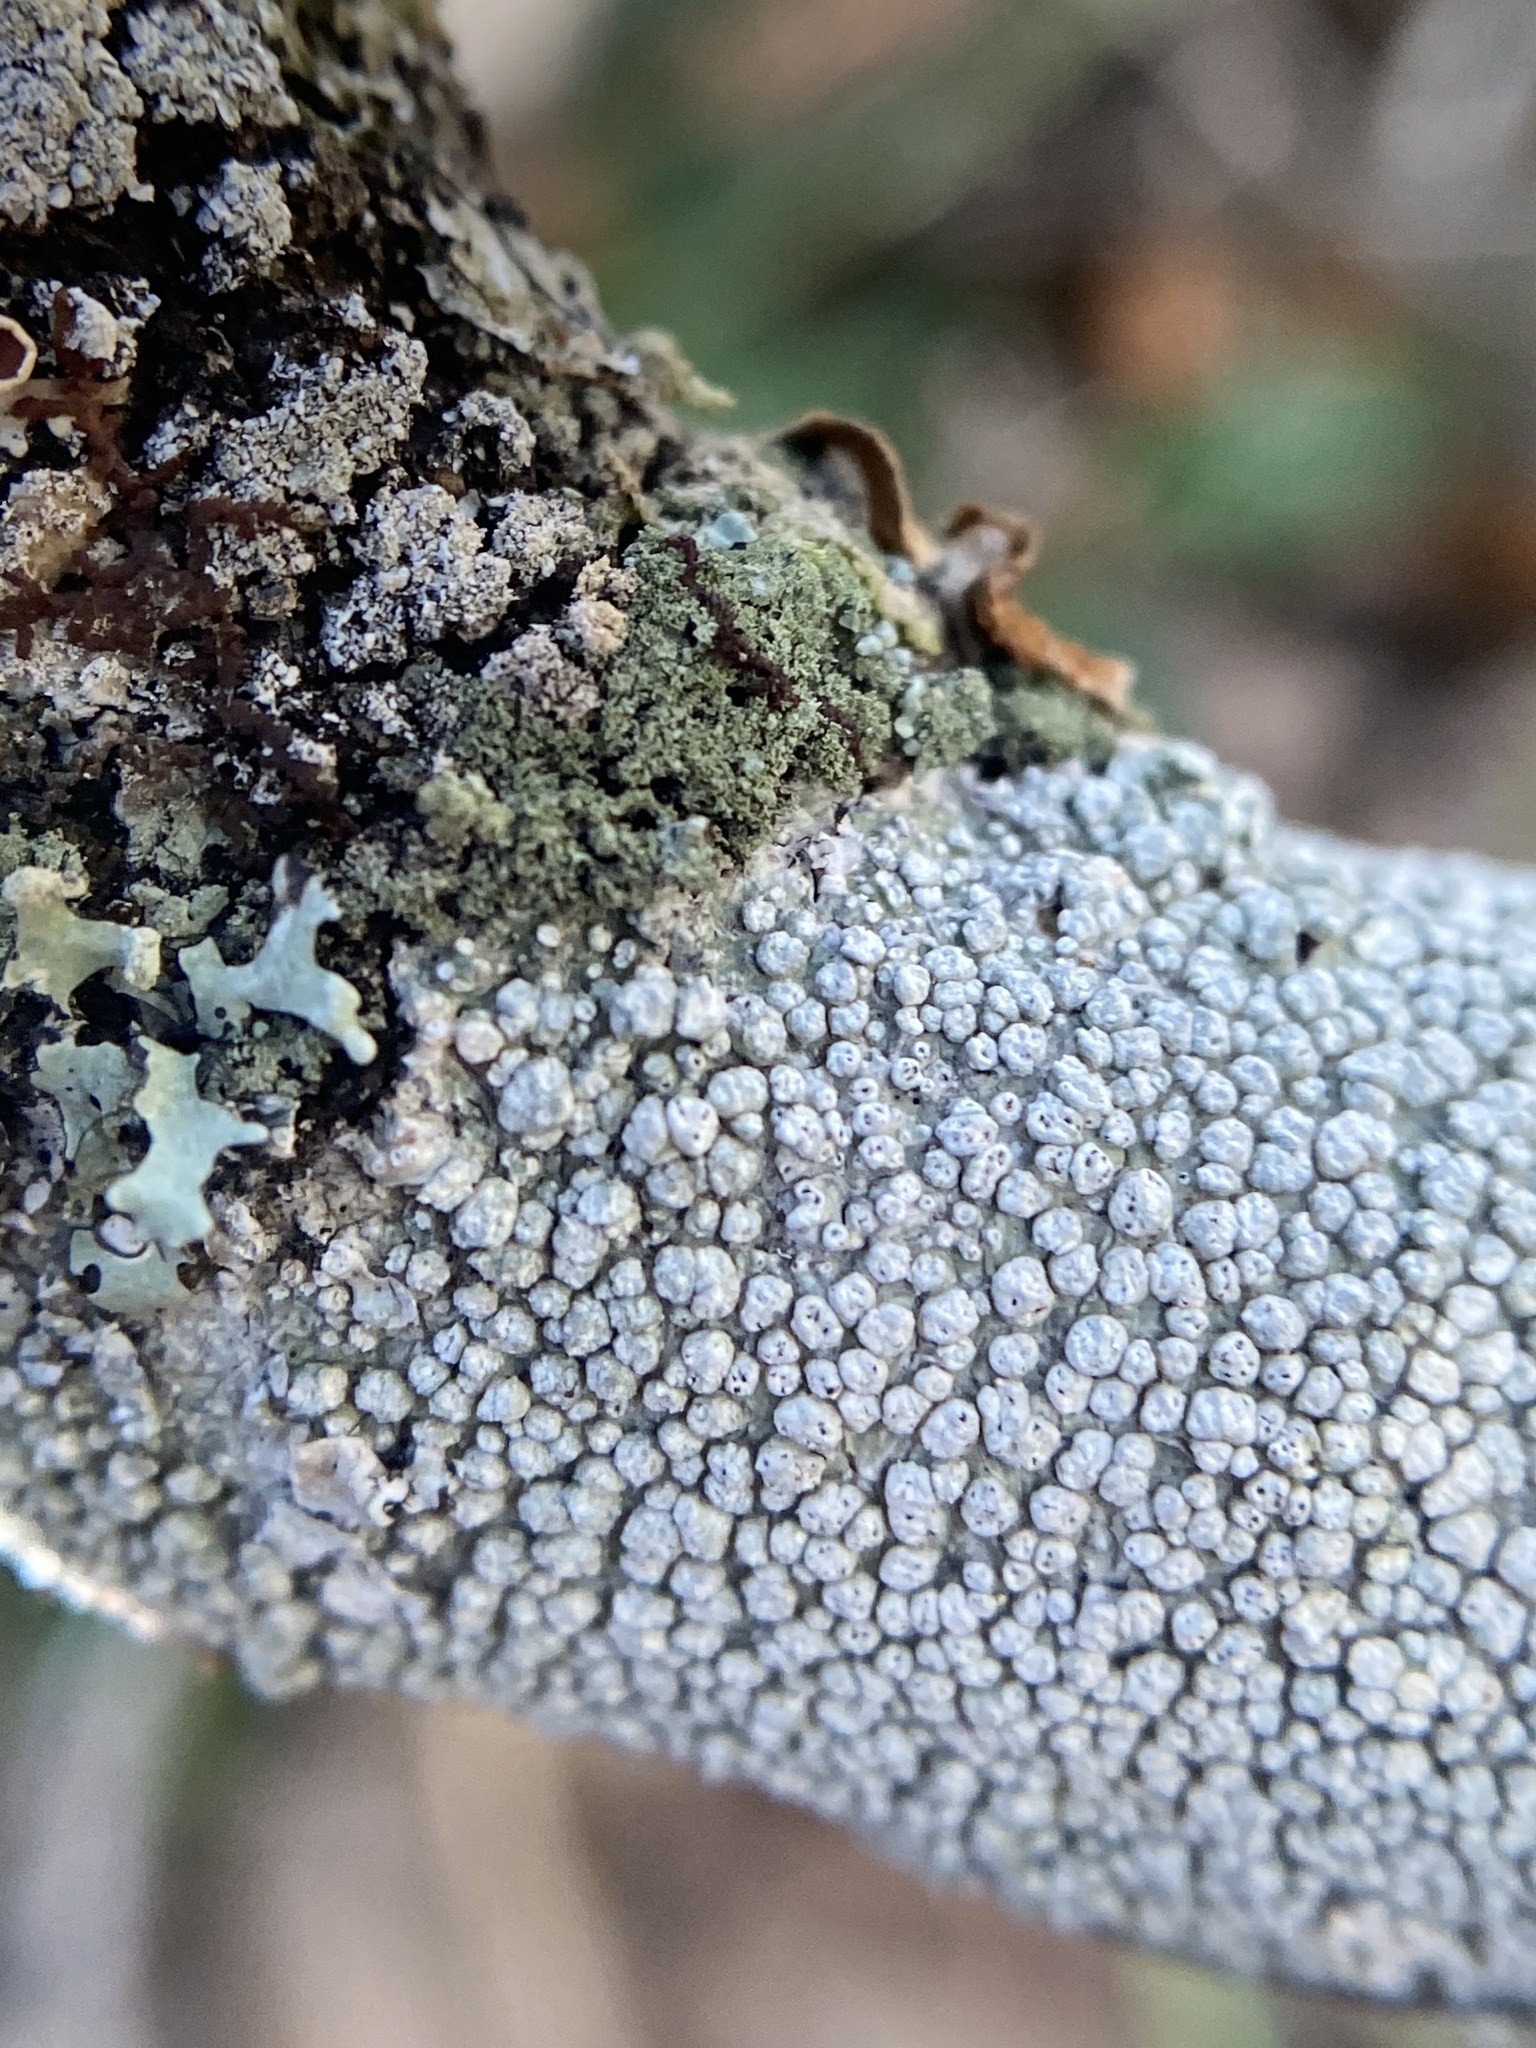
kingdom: Fungi
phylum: Ascomycota
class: Lecanoromycetes
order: Pertusariales
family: Pertusariaceae
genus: Pertusaria
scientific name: Pertusaria subpertusa
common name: Mesa wart lichen
